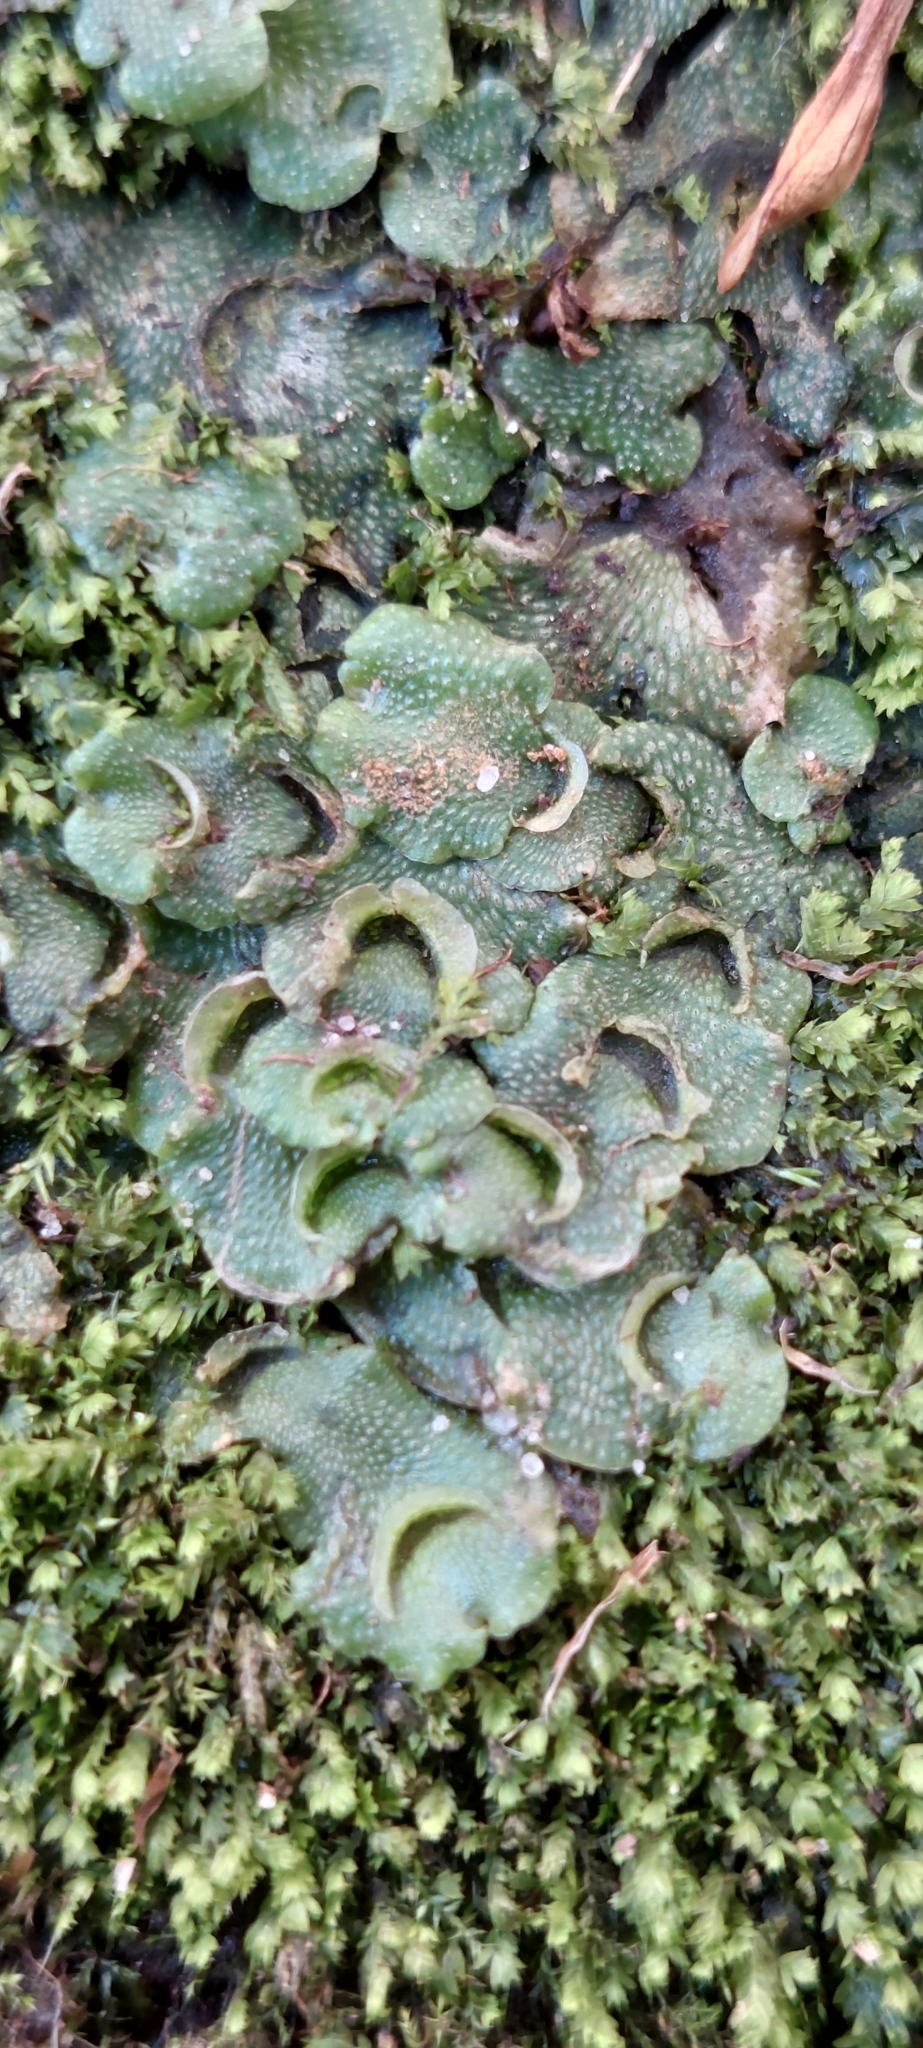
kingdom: Plantae
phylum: Marchantiophyta
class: Marchantiopsida
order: Lunulariales
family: Lunulariaceae
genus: Lunularia
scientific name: Lunularia cruciata
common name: Crescent-cup liverwort
